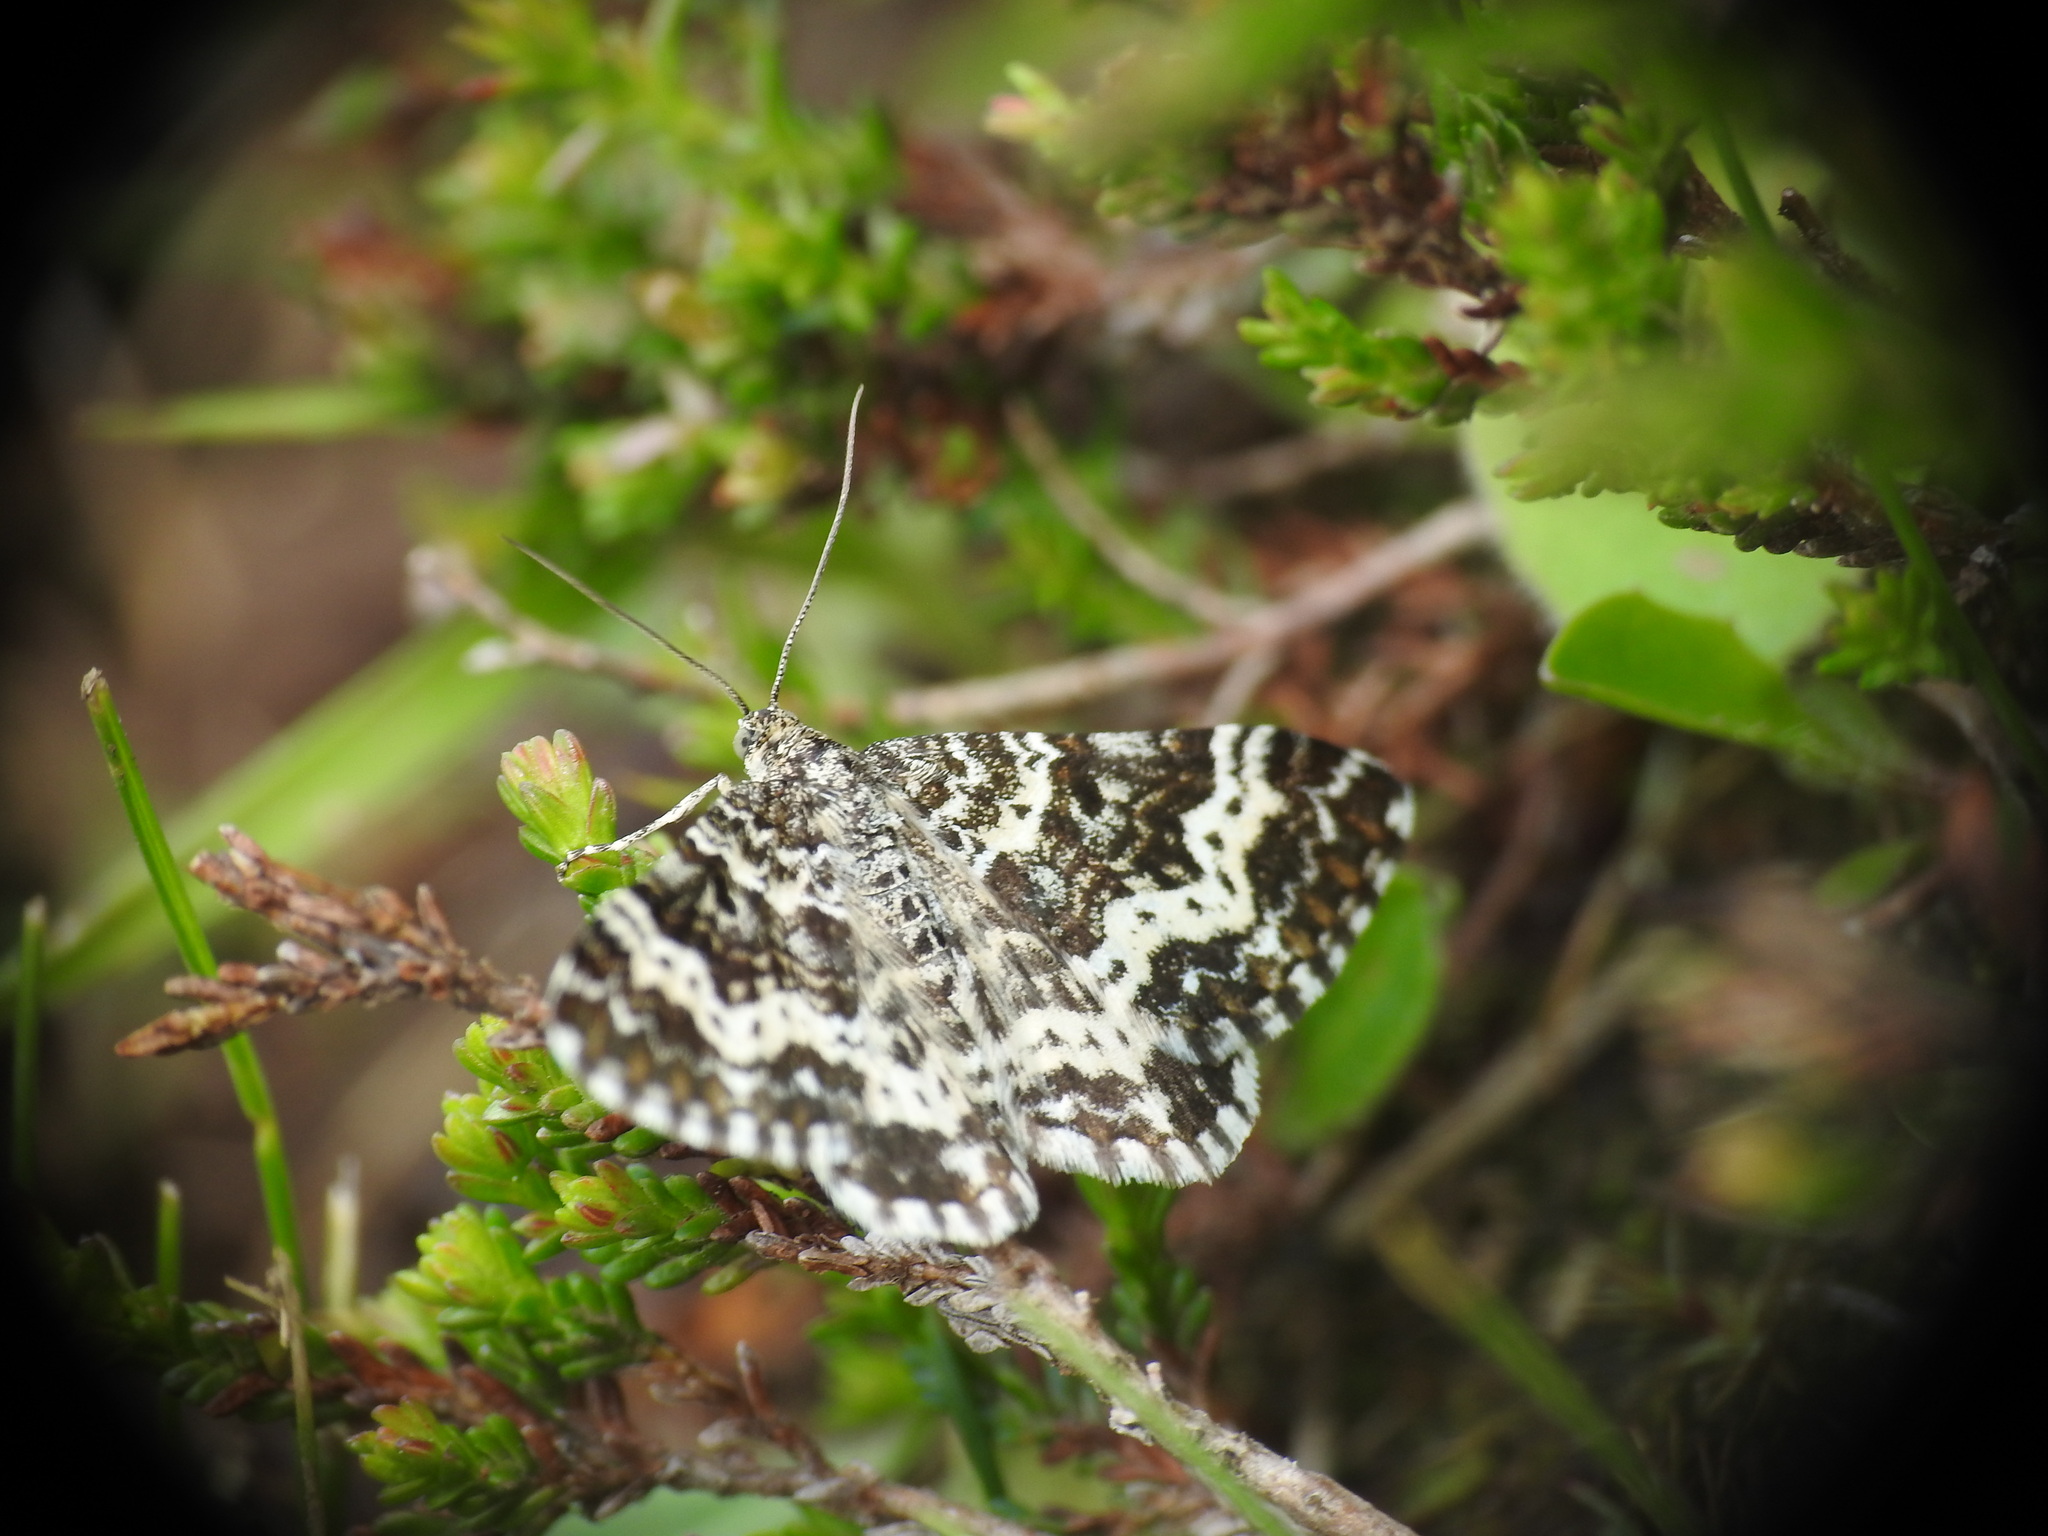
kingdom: Animalia
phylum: Arthropoda
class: Insecta
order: Lepidoptera
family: Geometridae
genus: Epirrhoe
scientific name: Epirrhoe tristata
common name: Small argent & sable
